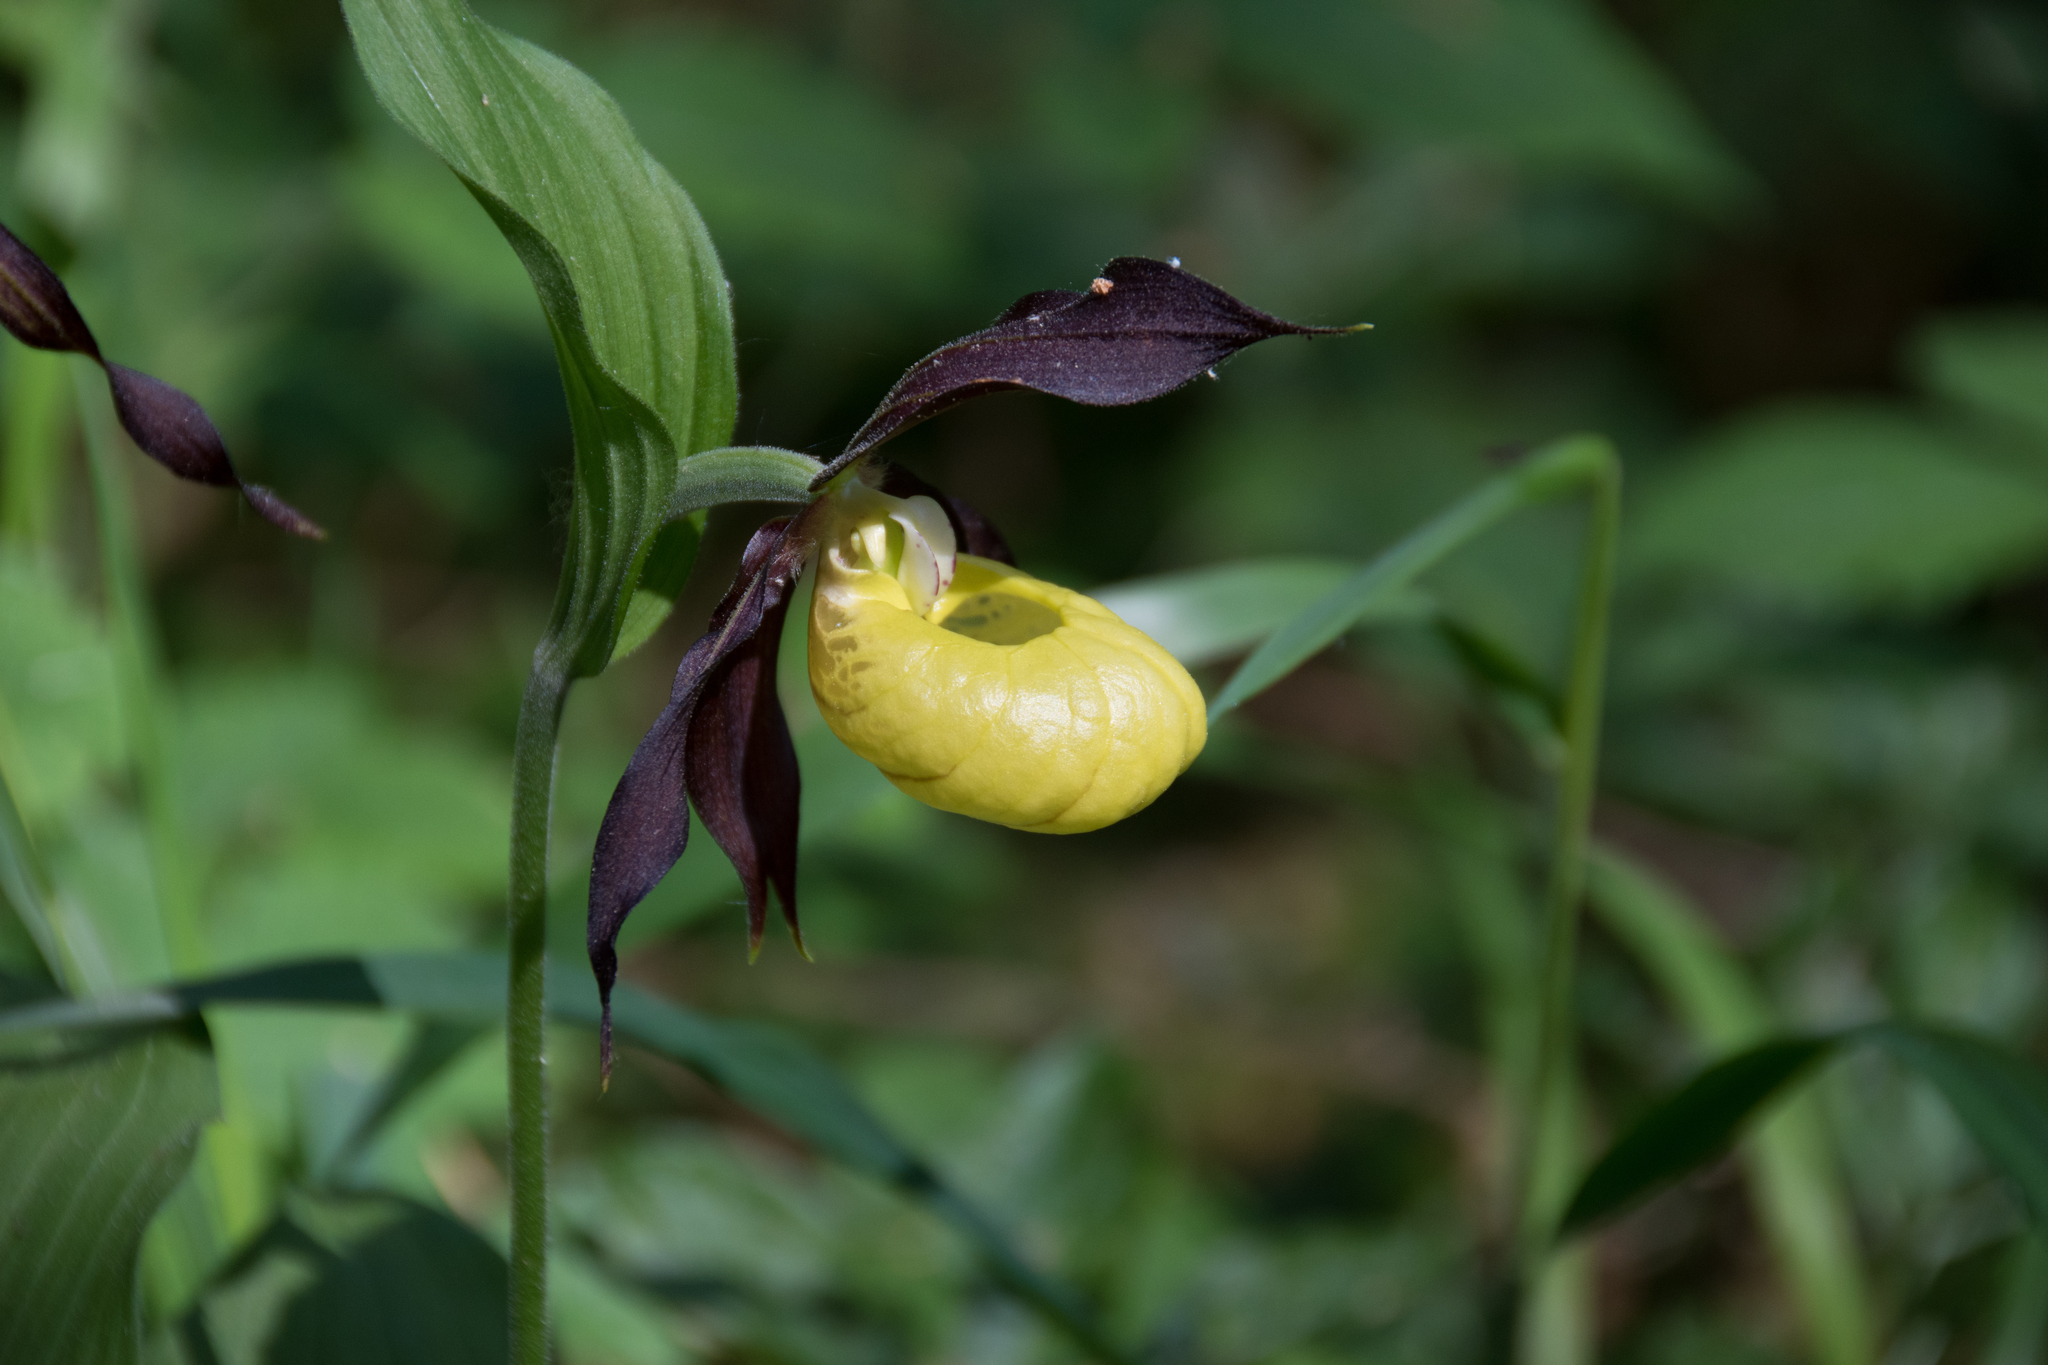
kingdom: Plantae
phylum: Tracheophyta
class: Liliopsida
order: Asparagales
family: Orchidaceae
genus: Cypripedium
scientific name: Cypripedium calceolus
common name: Lady's-slipper
